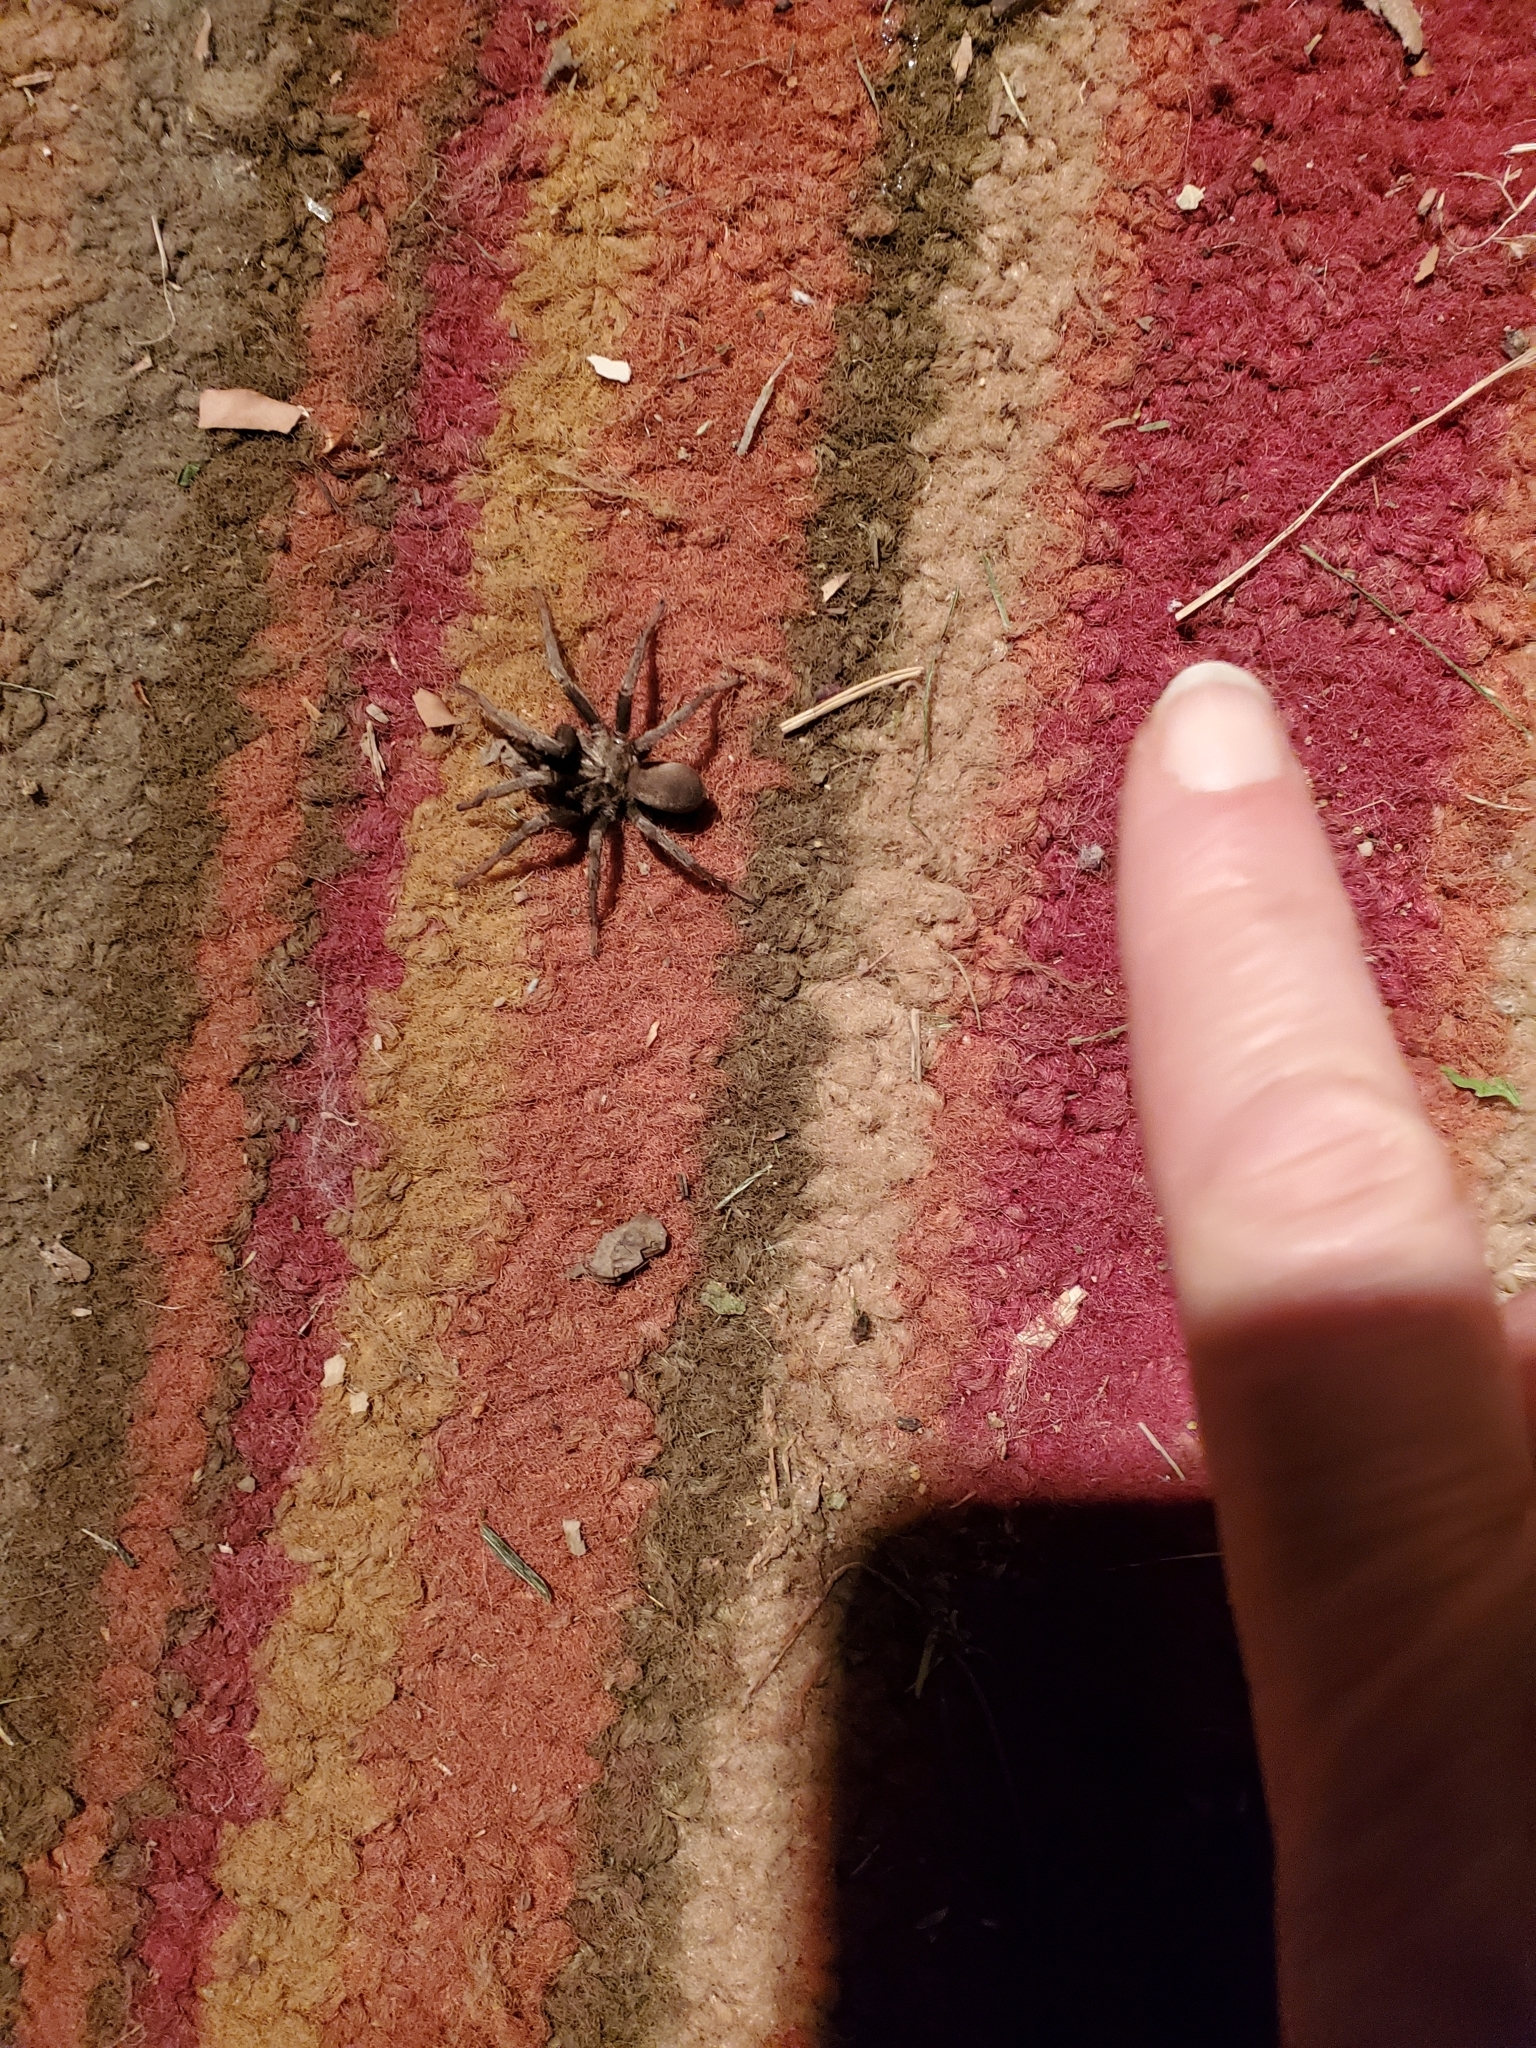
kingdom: Animalia
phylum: Arthropoda
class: Arachnida
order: Araneae
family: Nemesiidae
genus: Calisoga
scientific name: Calisoga longitarsis
